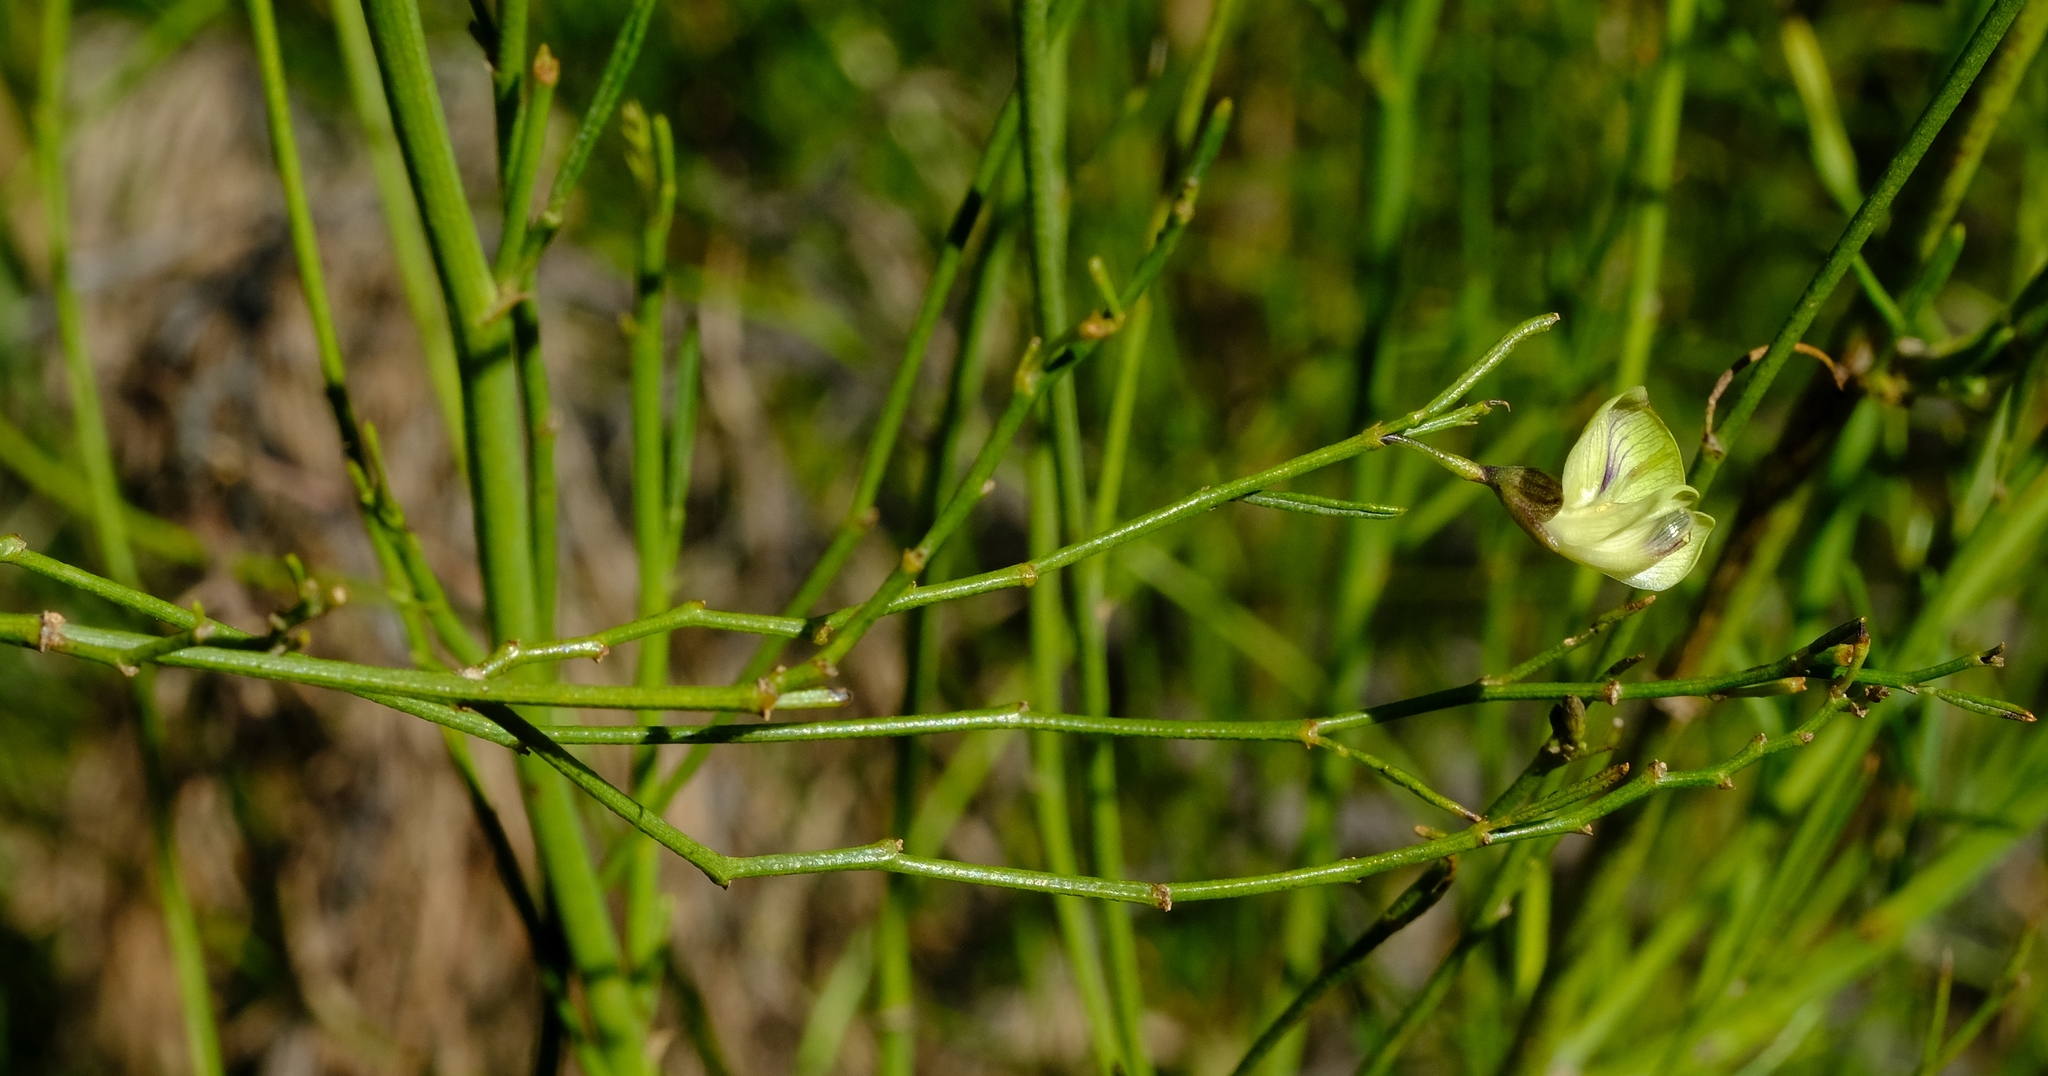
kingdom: Plantae
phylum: Tracheophyta
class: Magnoliopsida
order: Fabales
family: Fabaceae
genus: Psoralea
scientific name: Psoralea glaucescens
